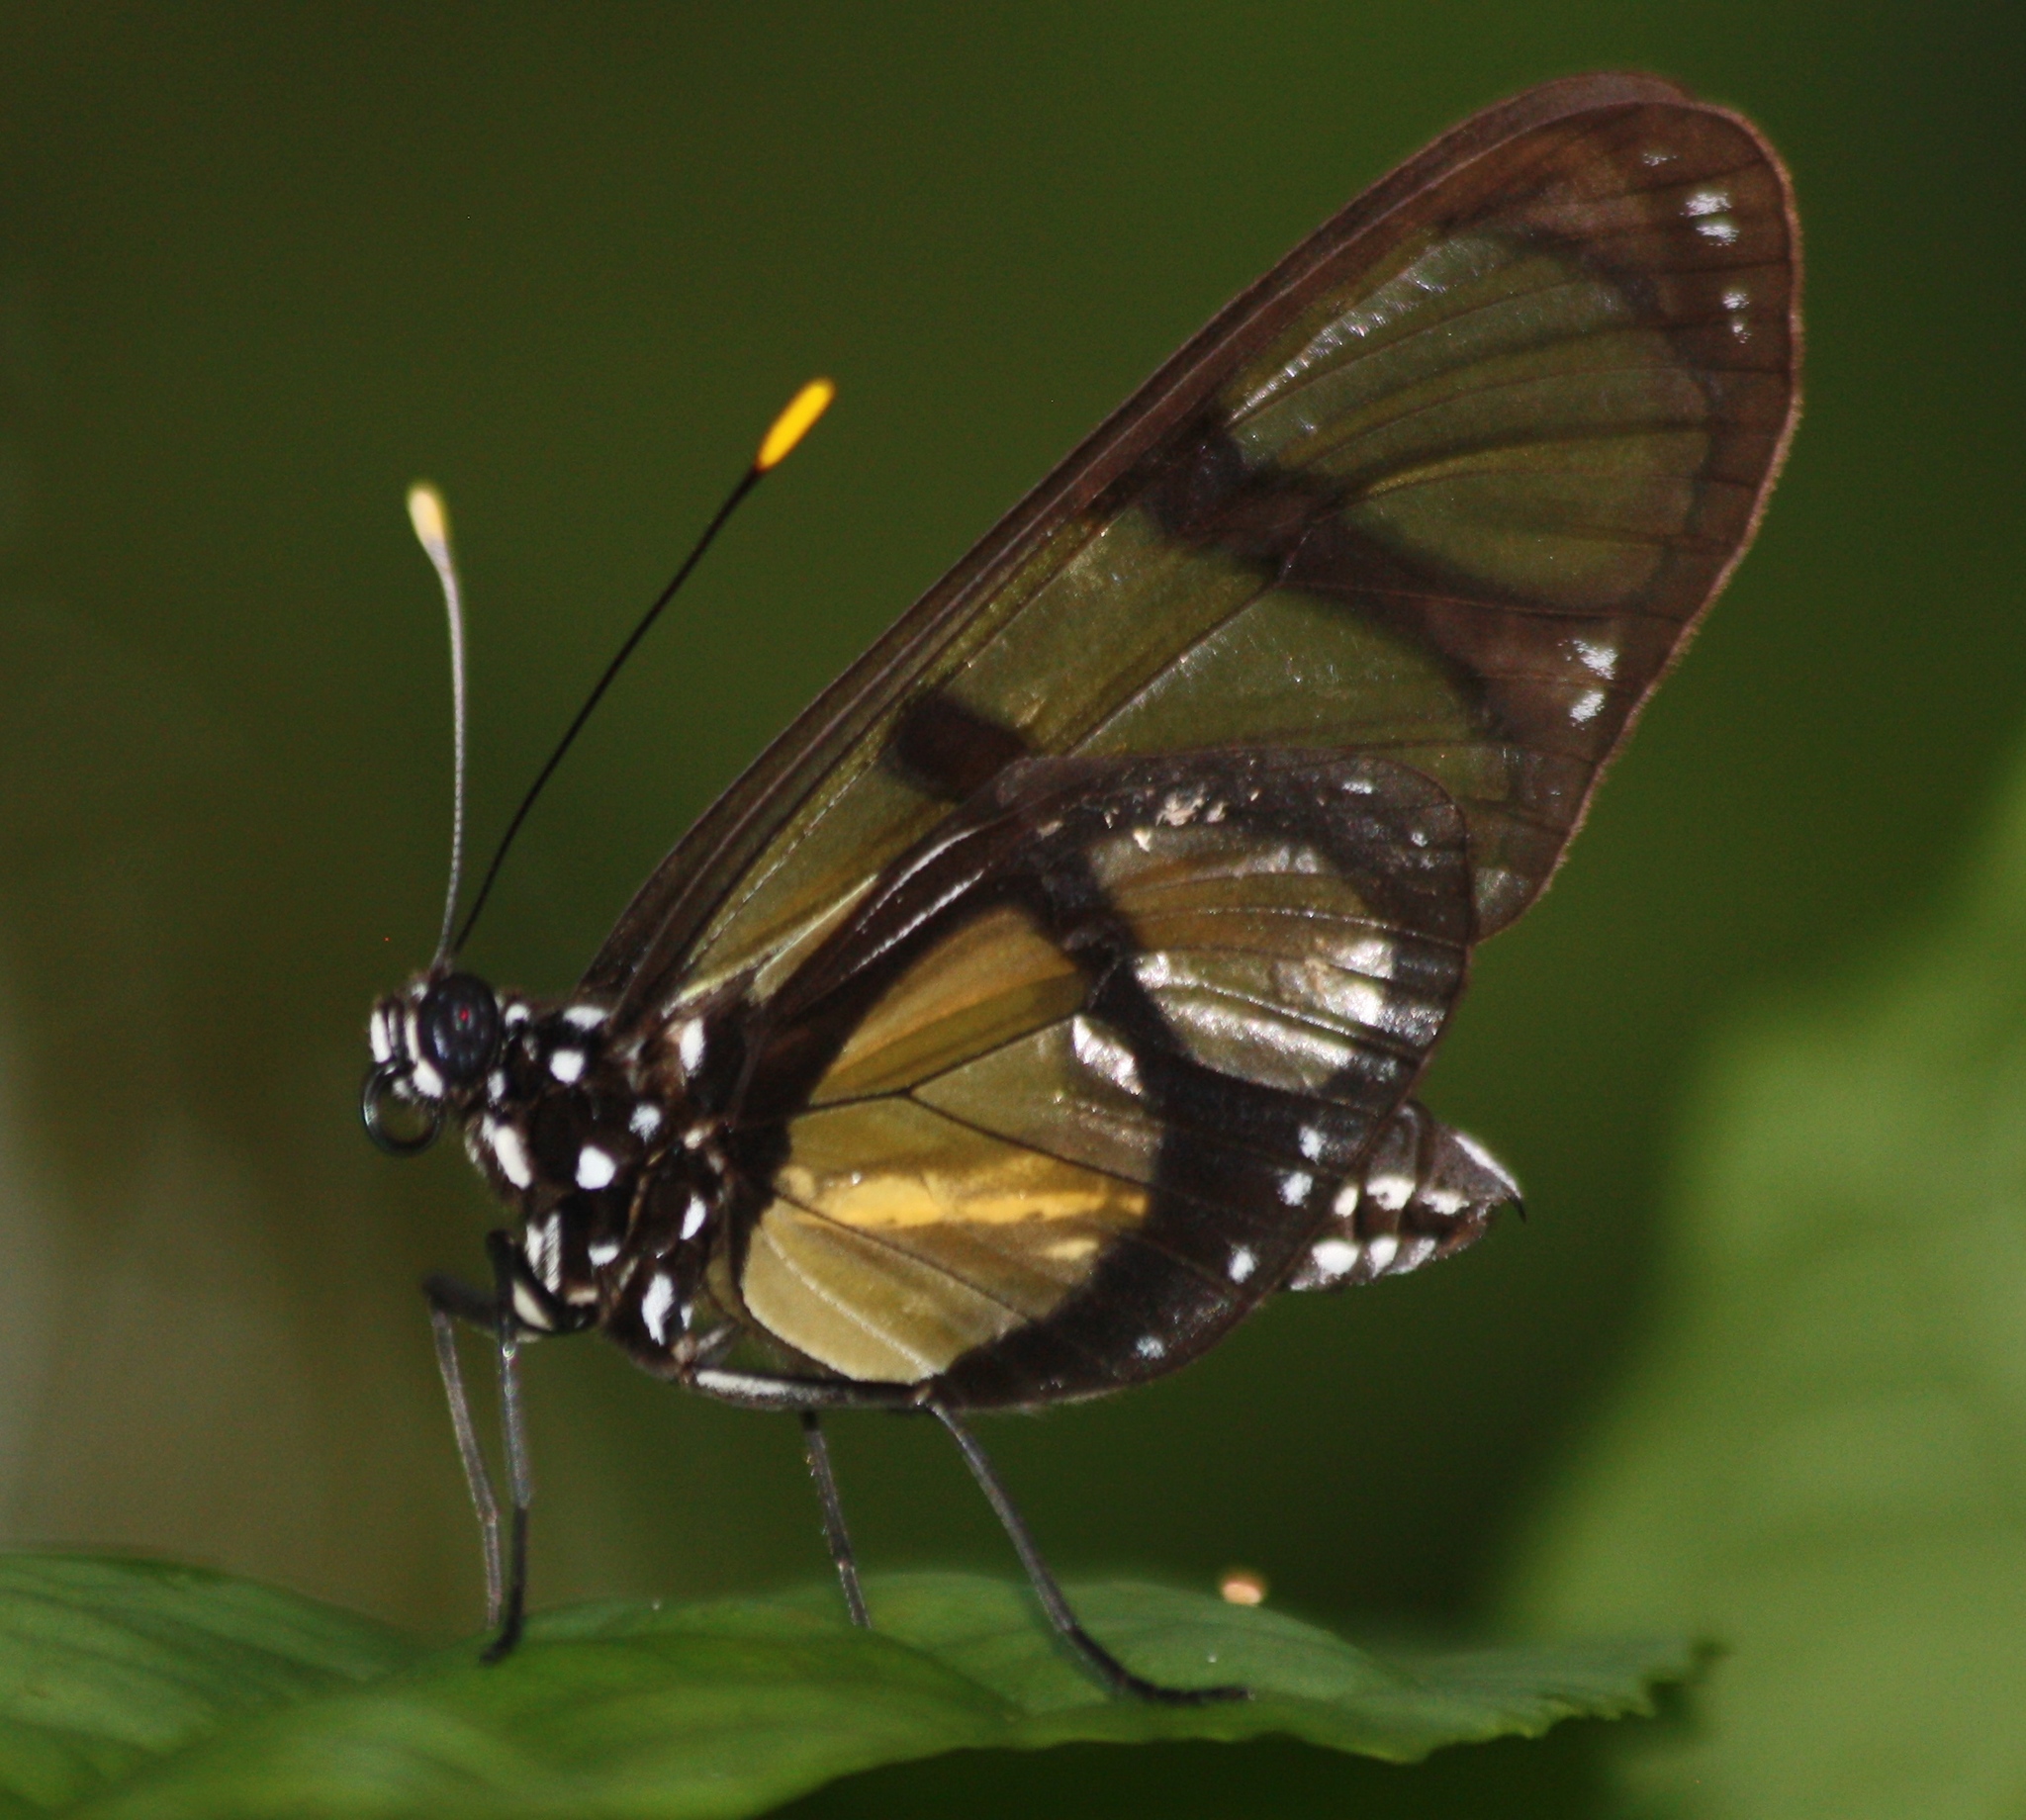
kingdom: Animalia
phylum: Arthropoda
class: Insecta
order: Lepidoptera
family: Nymphalidae
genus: Methona
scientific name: Methona confusa
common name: Confusa tigerwing
